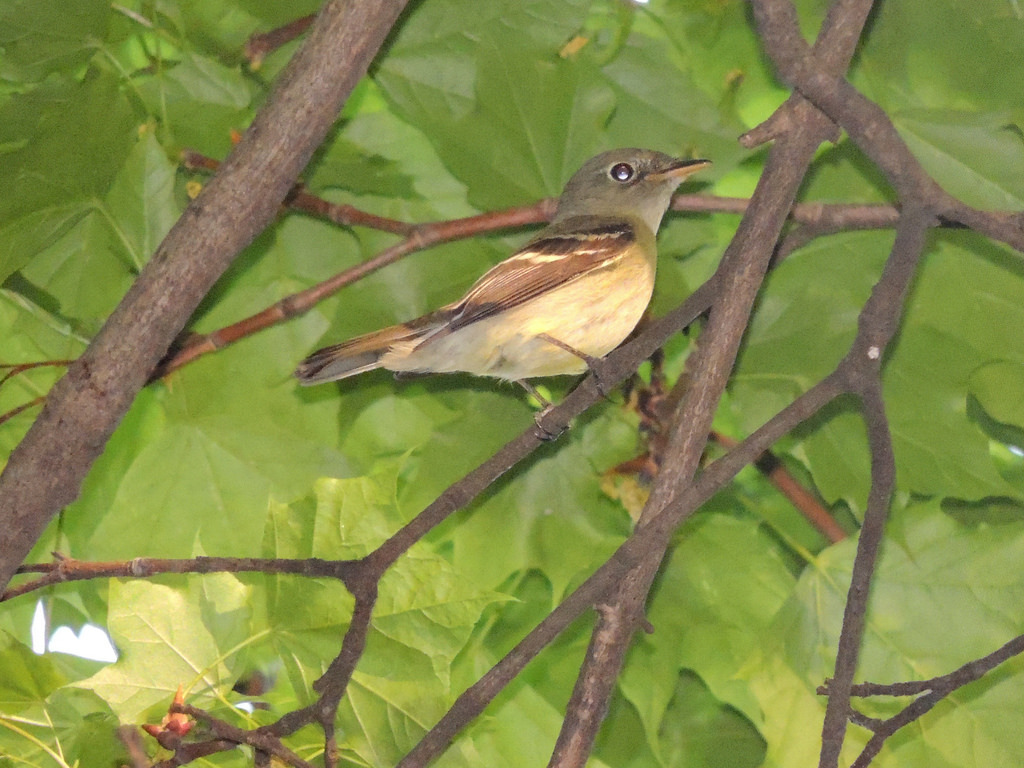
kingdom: Animalia
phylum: Chordata
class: Aves
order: Passeriformes
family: Tyrannidae
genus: Empidonax
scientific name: Empidonax virescens
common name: Acadian flycatcher
